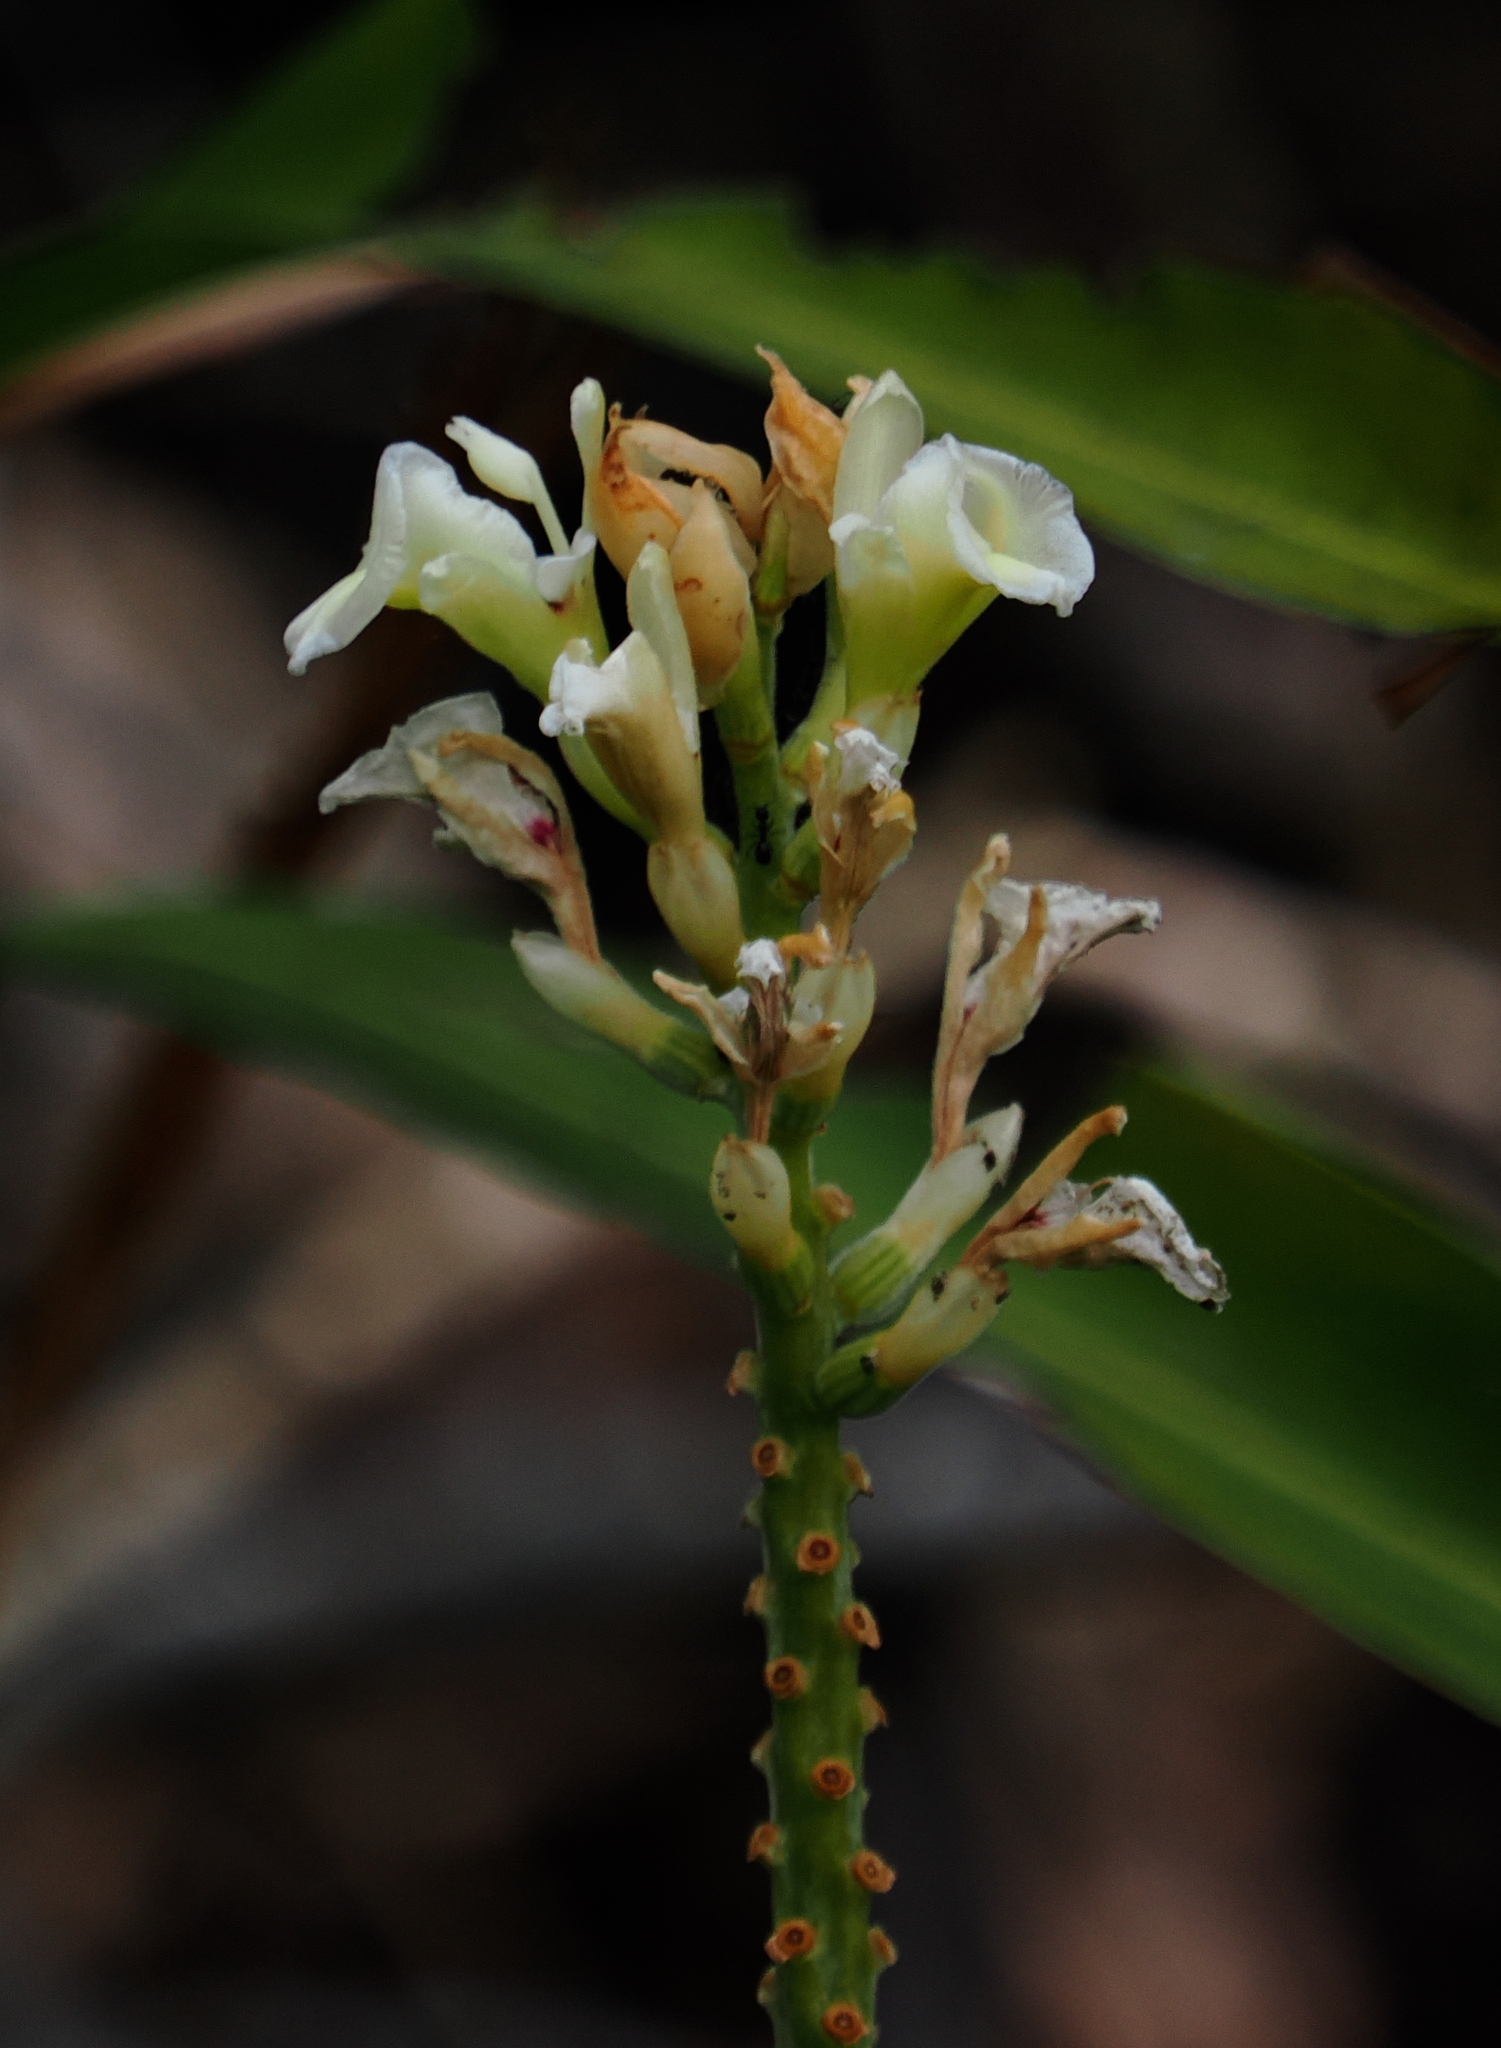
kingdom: Plantae
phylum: Tracheophyta
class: Liliopsida
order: Zingiberales
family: Zingiberaceae
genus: Alpinia
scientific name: Alpinia oxymitra
